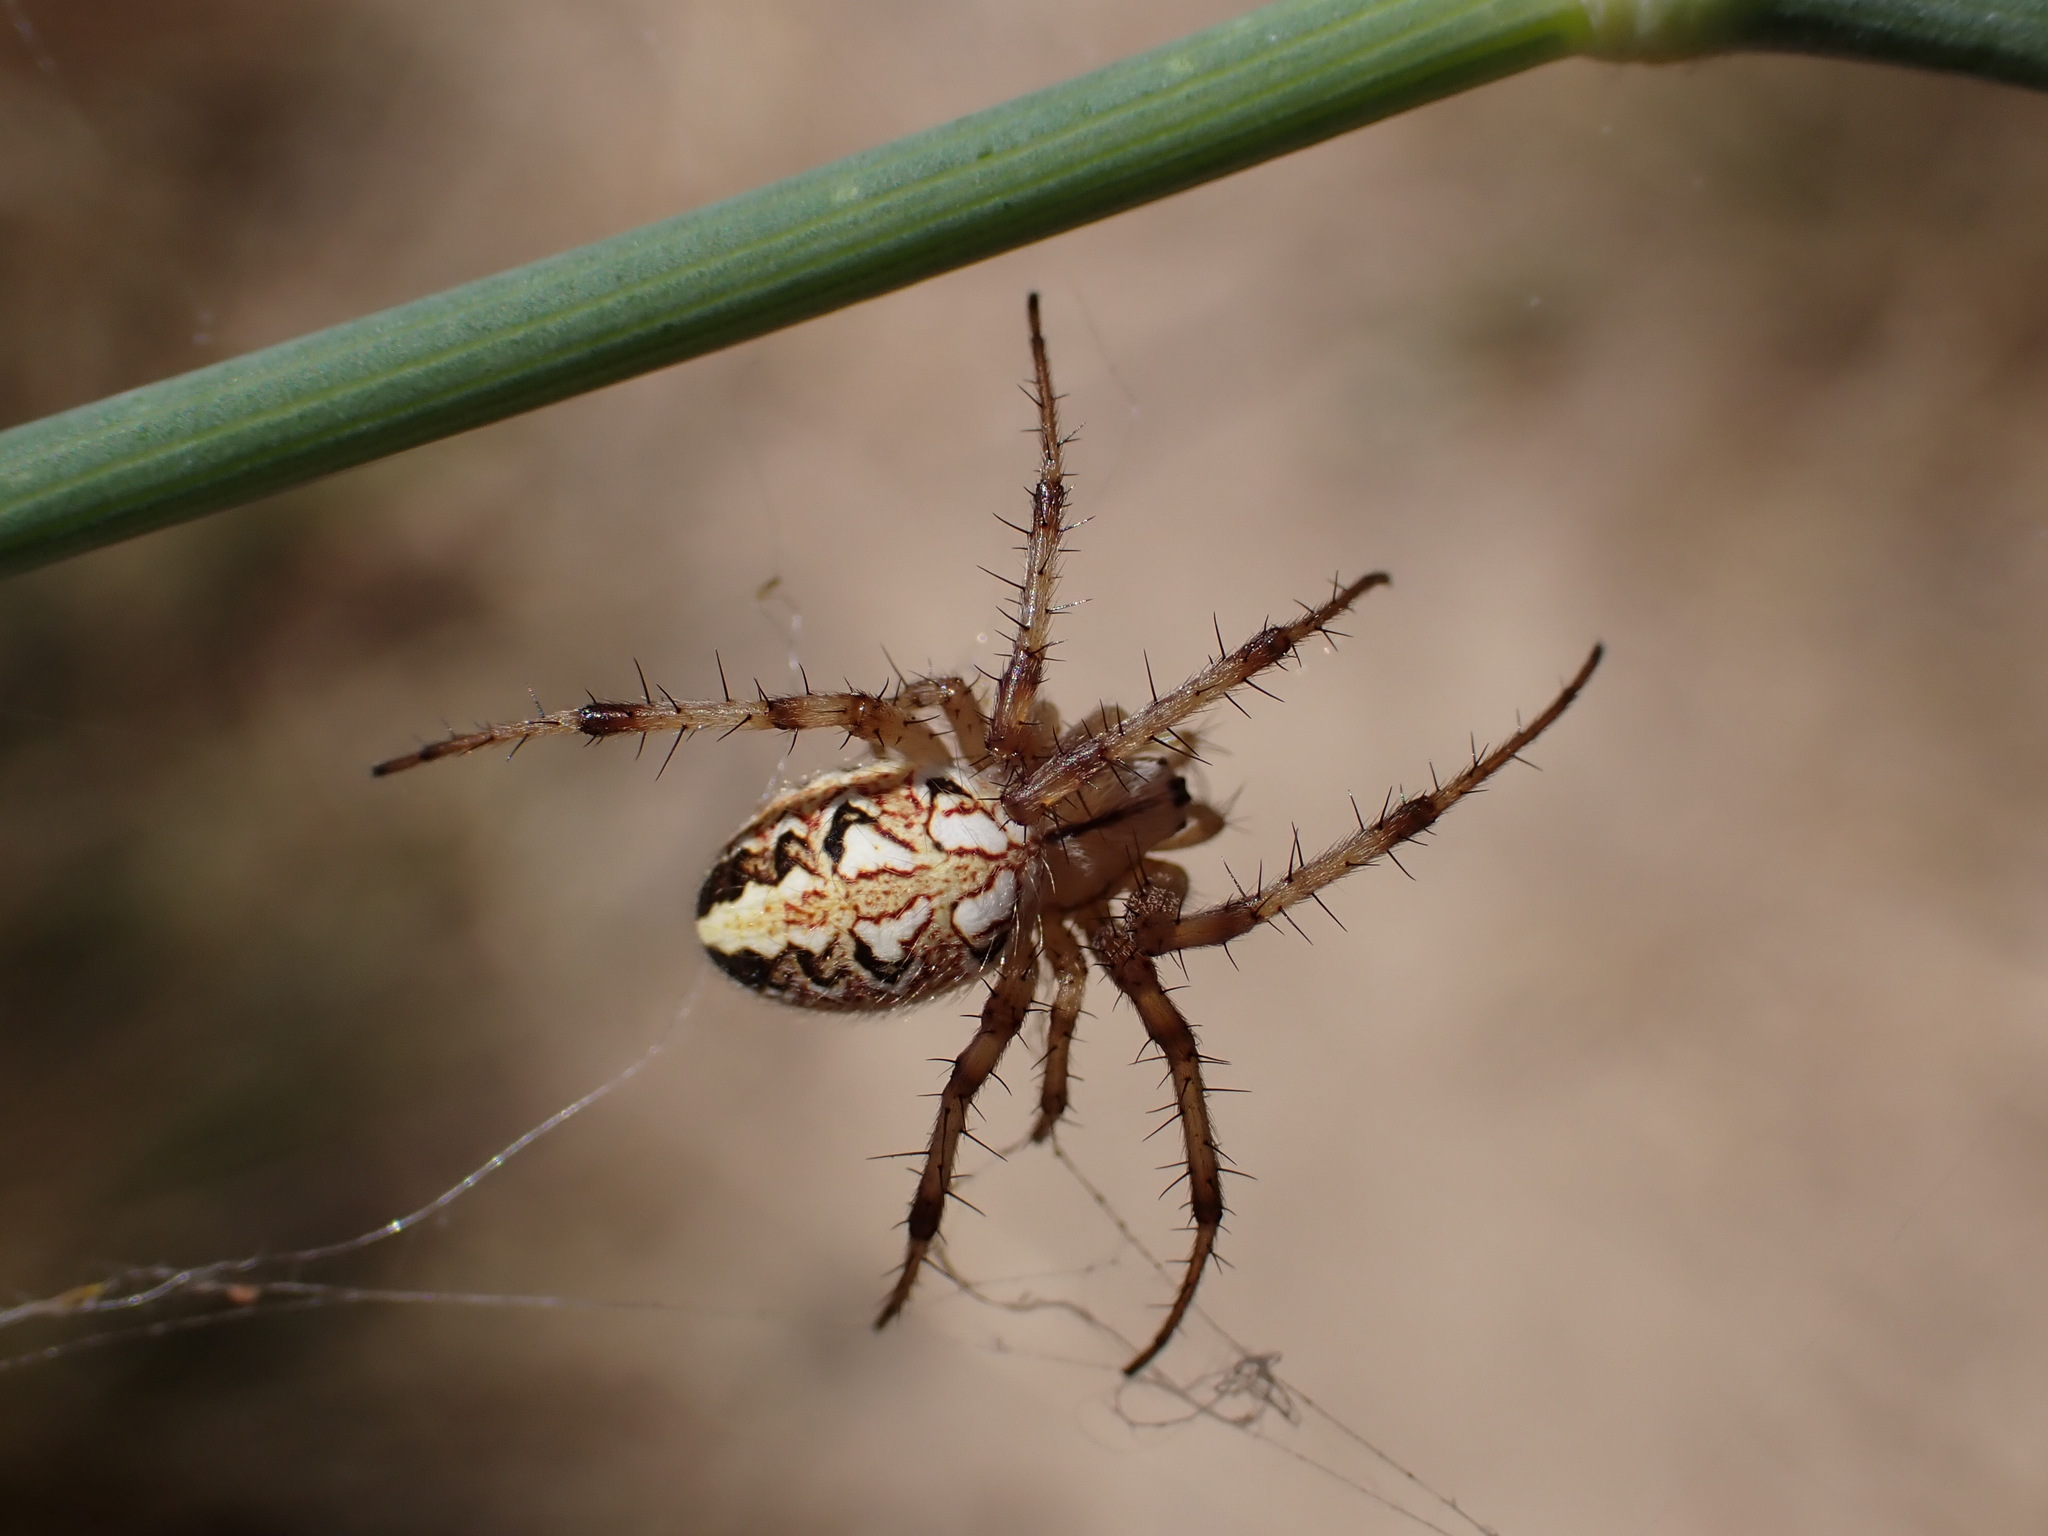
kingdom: Animalia
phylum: Arthropoda
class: Arachnida
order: Araneae
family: Araneidae
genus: Neoscona
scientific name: Neoscona adianta
